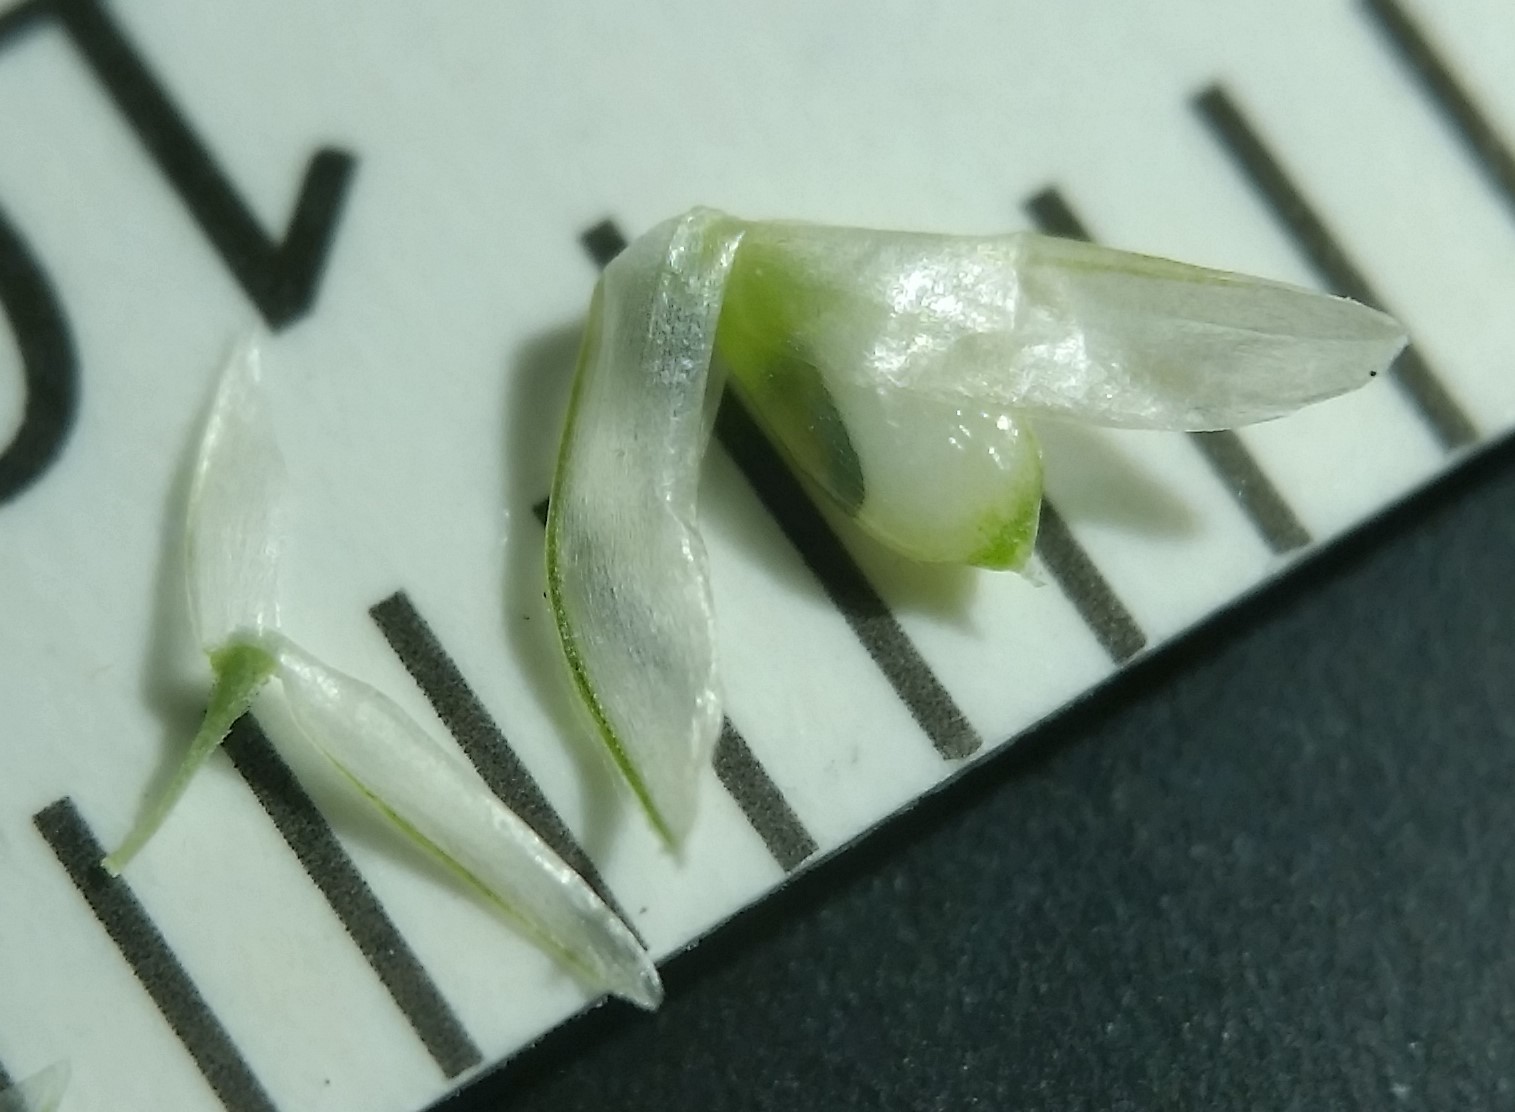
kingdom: Plantae
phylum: Tracheophyta
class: Liliopsida
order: Poales
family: Poaceae
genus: Sporobolus
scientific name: Sporobolus compositus
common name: Rough dropseed
